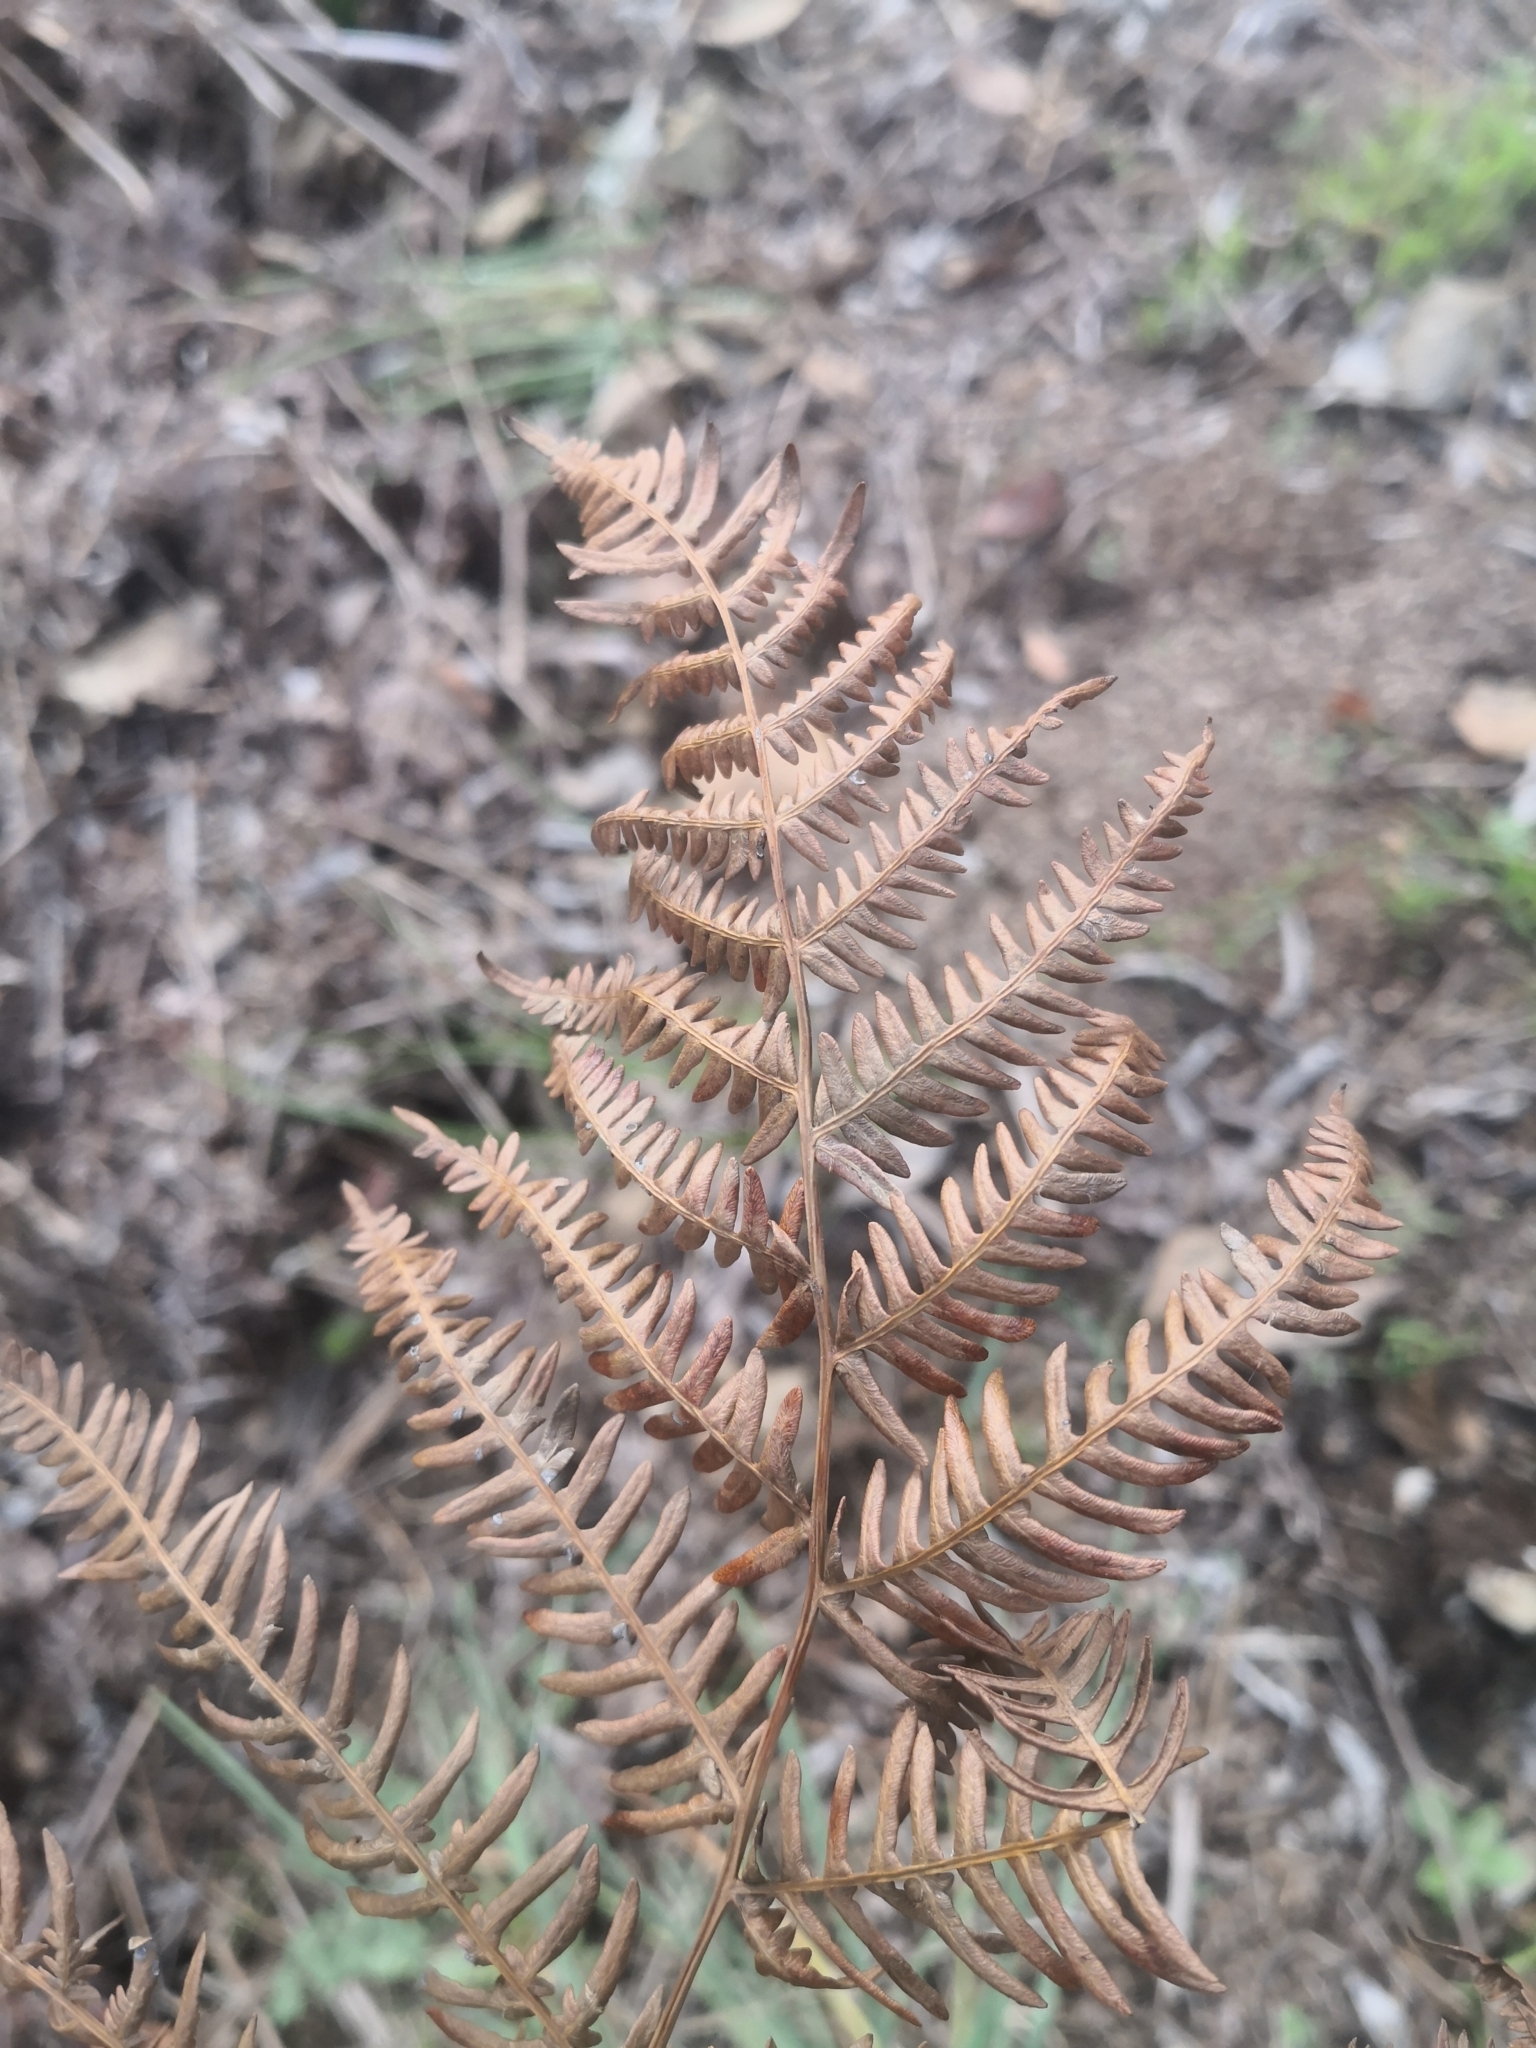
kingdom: Plantae
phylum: Tracheophyta
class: Polypodiopsida
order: Polypodiales
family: Dennstaedtiaceae
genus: Pteridium
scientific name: Pteridium aquilinum
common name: Bracken
